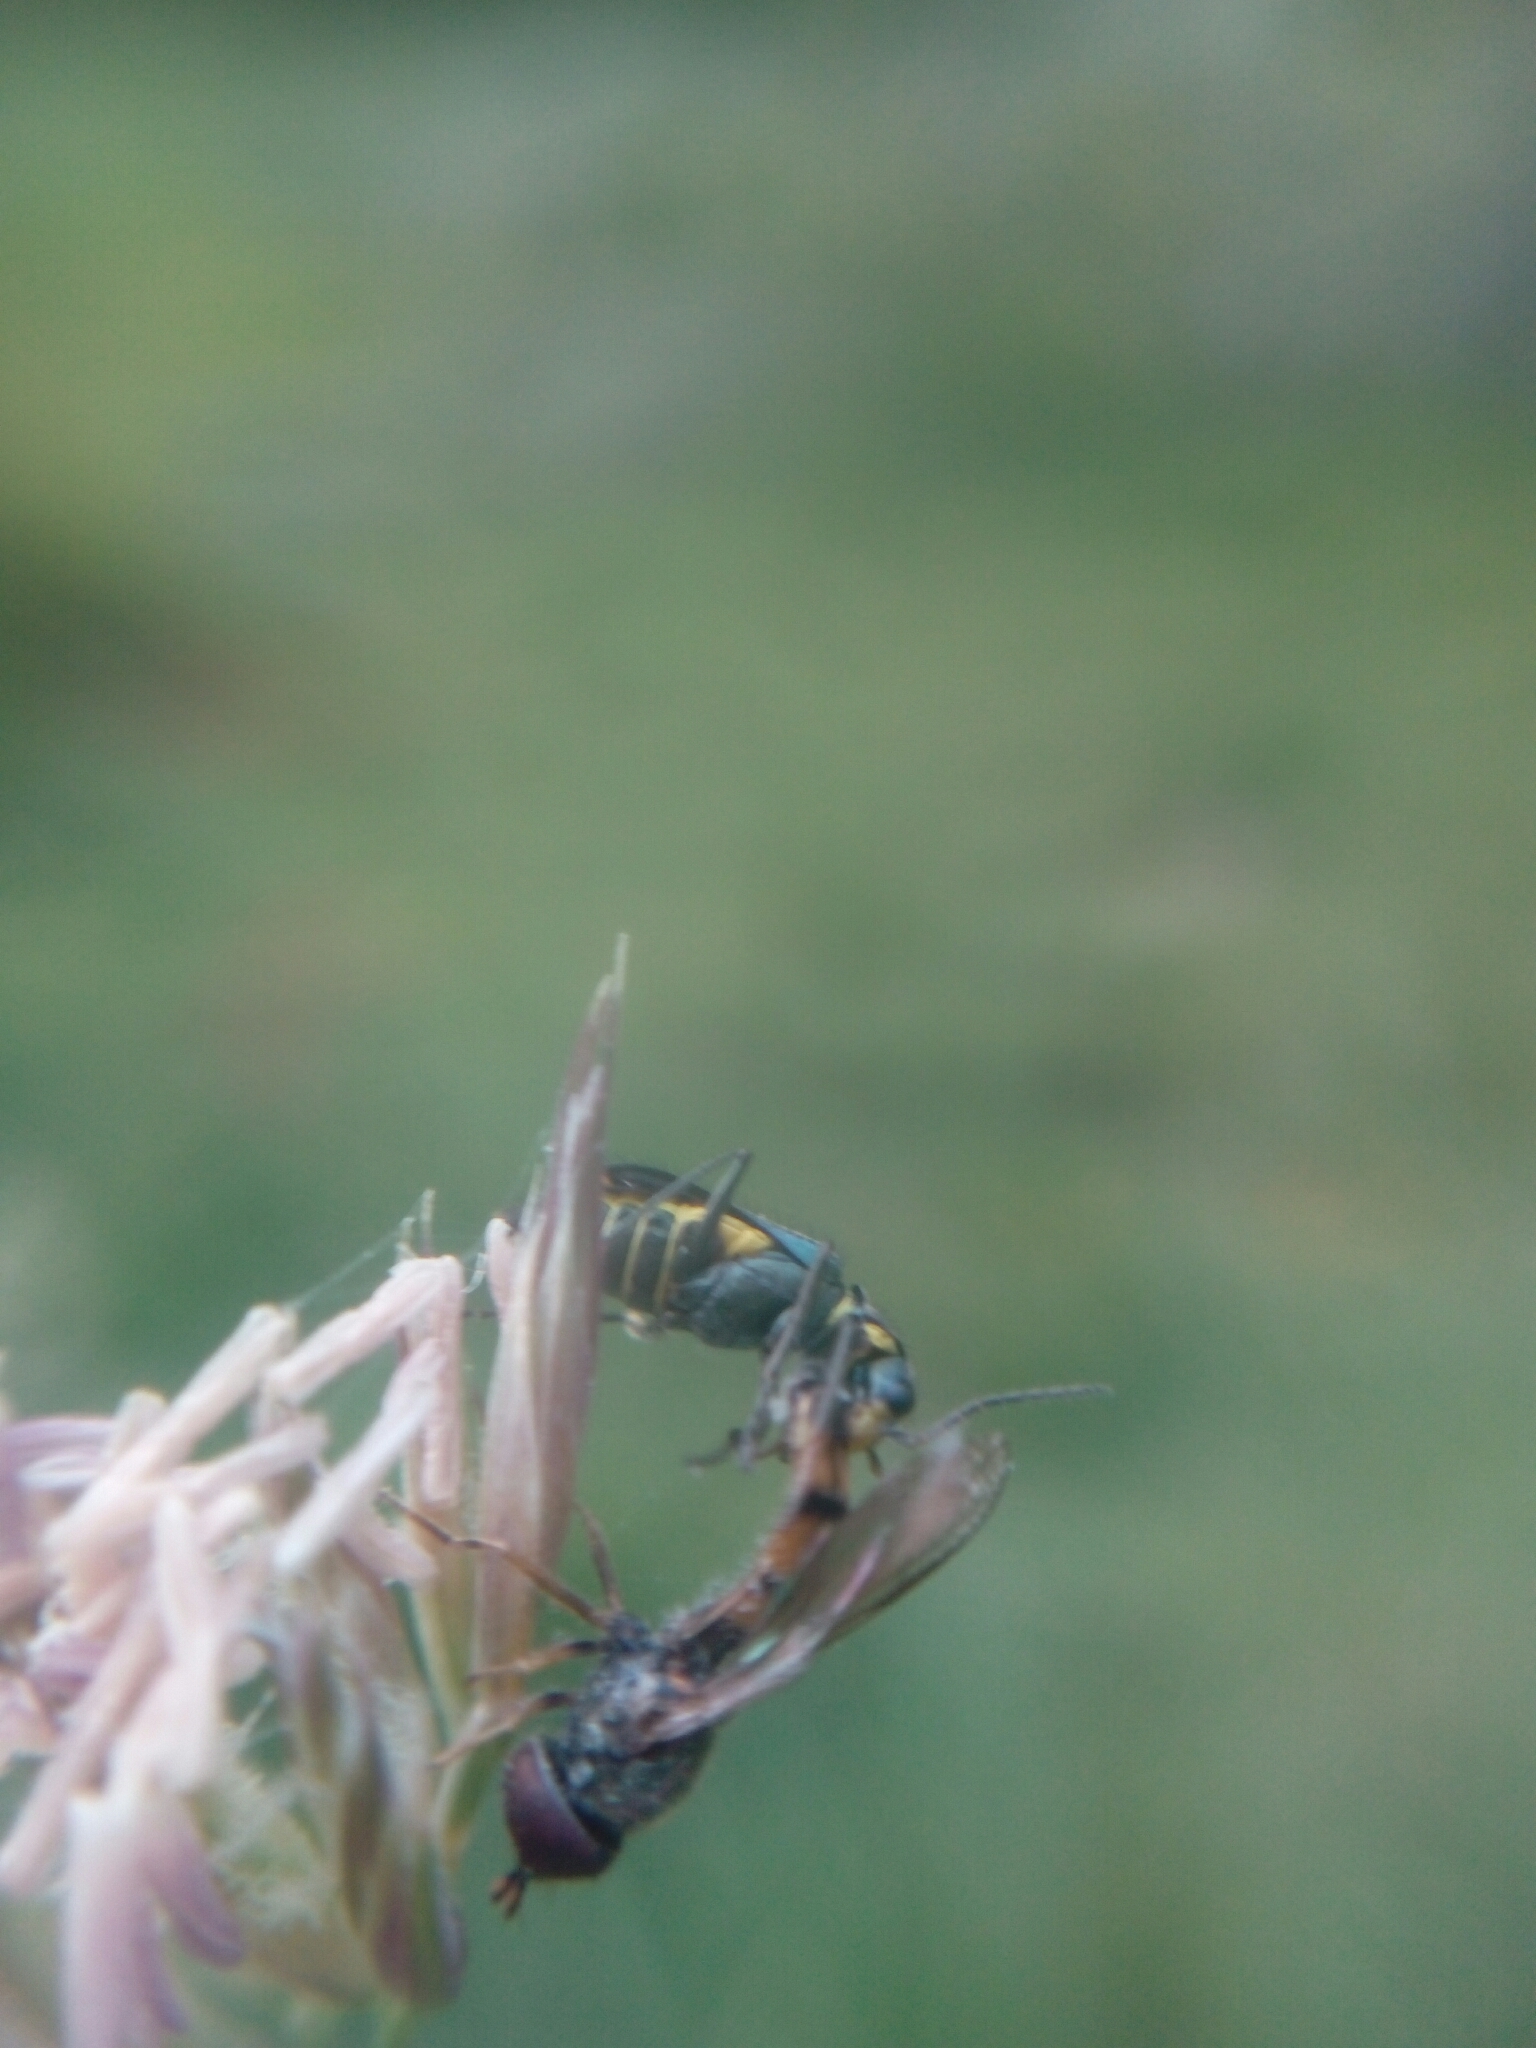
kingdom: Animalia
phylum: Arthropoda
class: Insecta
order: Coleoptera
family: Malachiidae
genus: Clanoptilus
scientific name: Clanoptilus emarginatus
